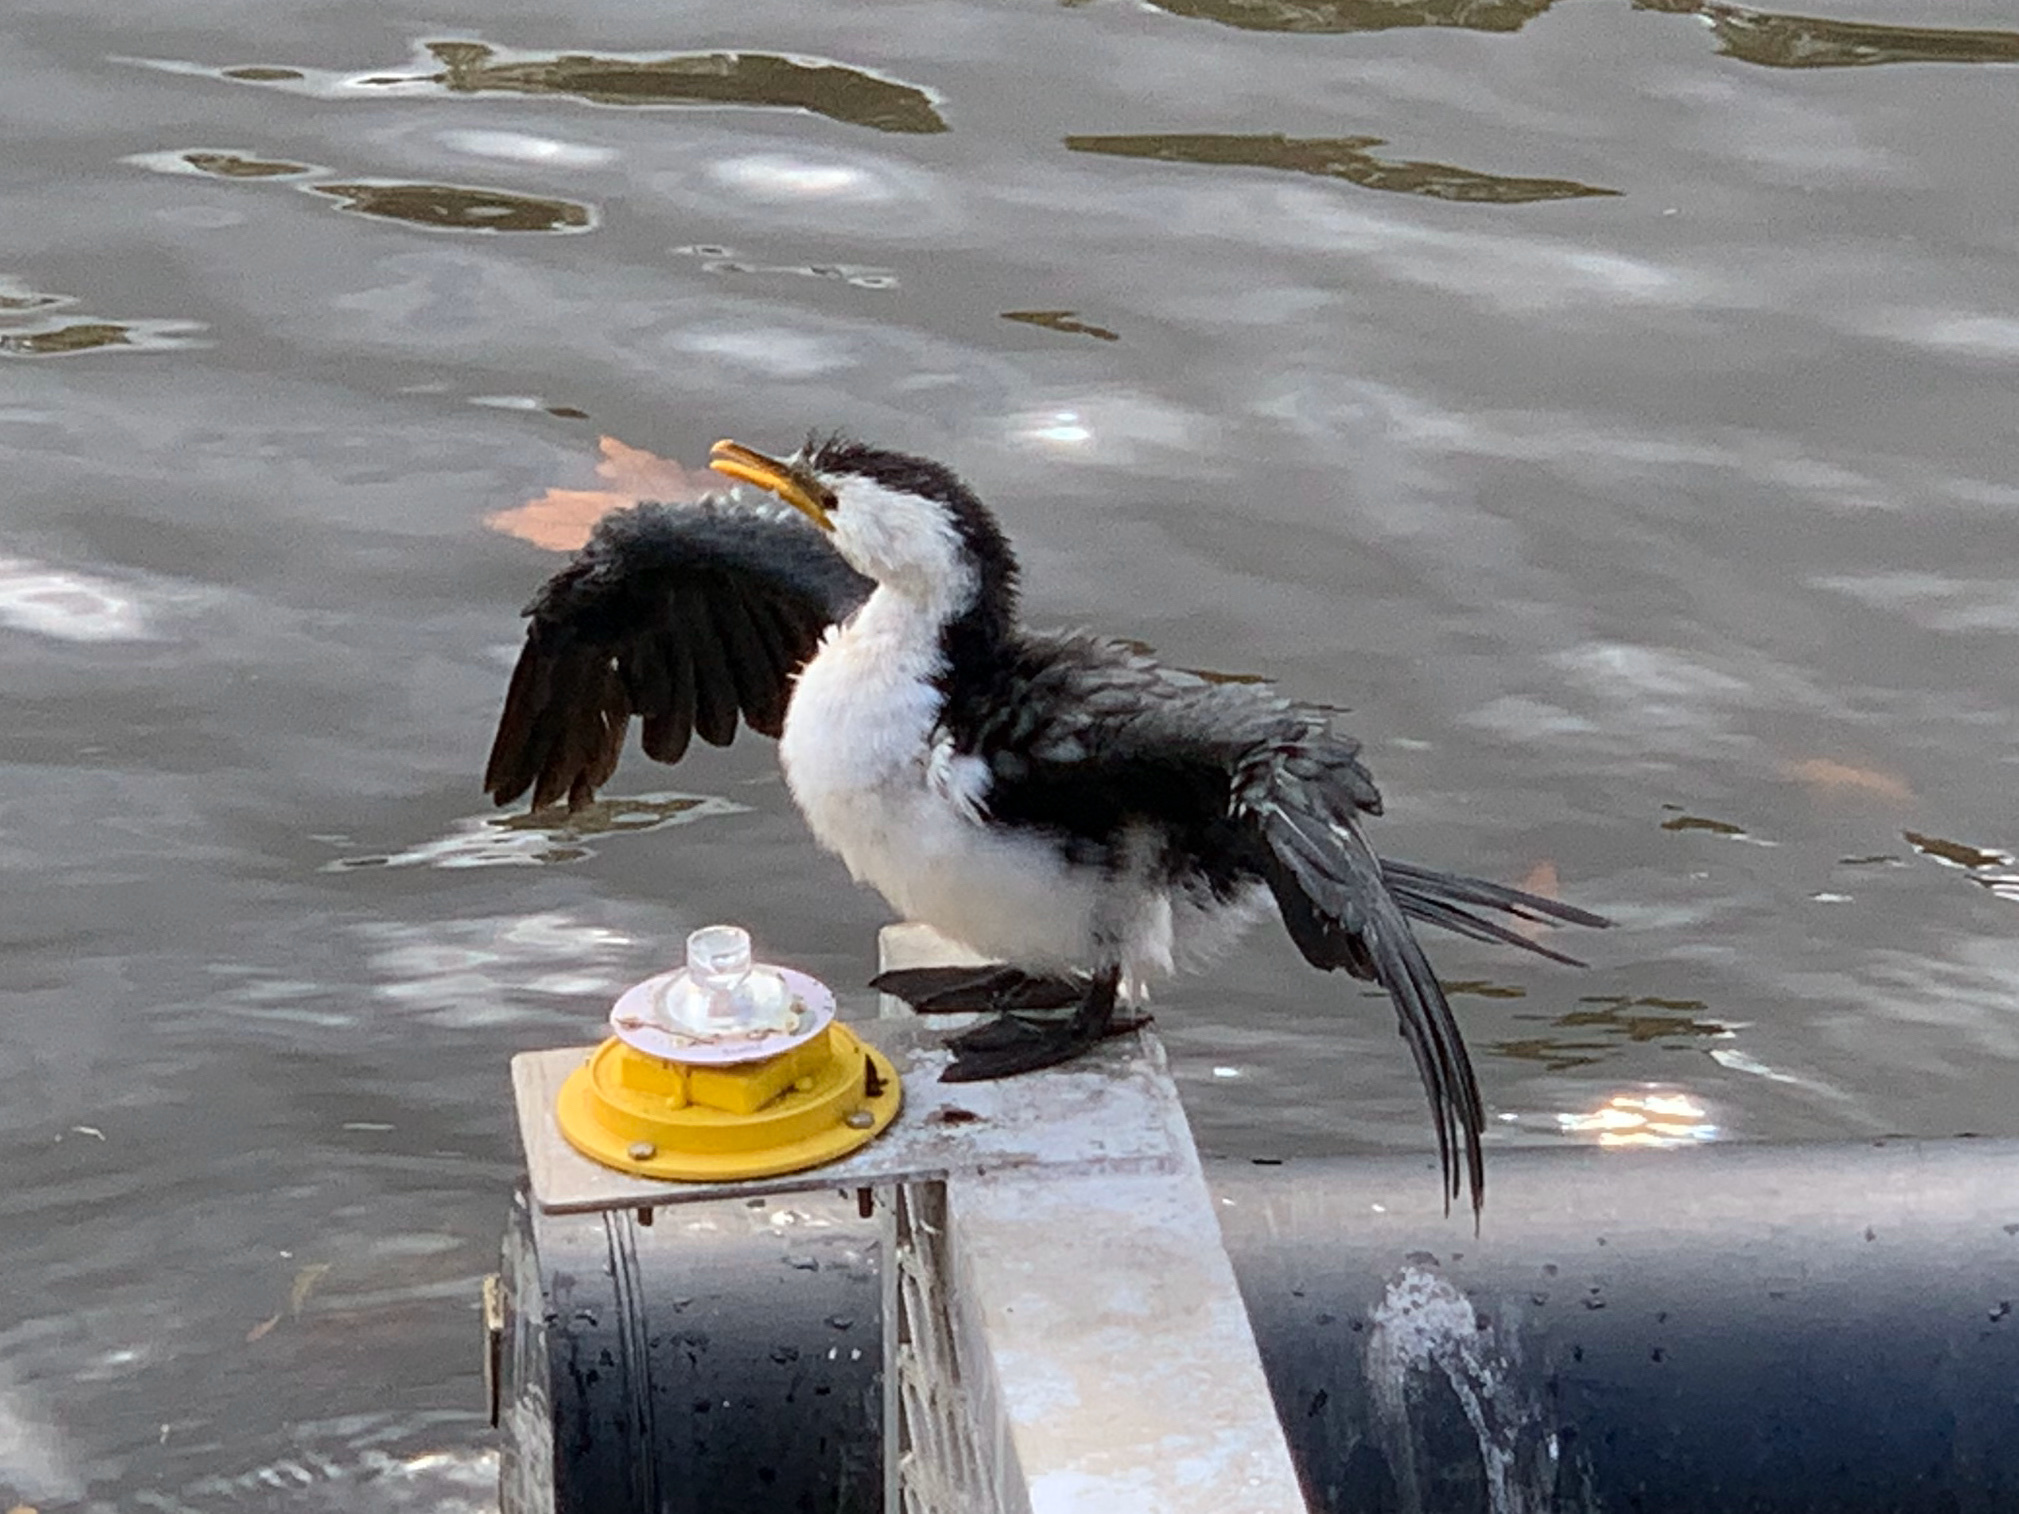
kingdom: Animalia
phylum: Chordata
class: Aves
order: Suliformes
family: Phalacrocoracidae
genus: Microcarbo
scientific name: Microcarbo melanoleucos
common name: Little pied cormorant
